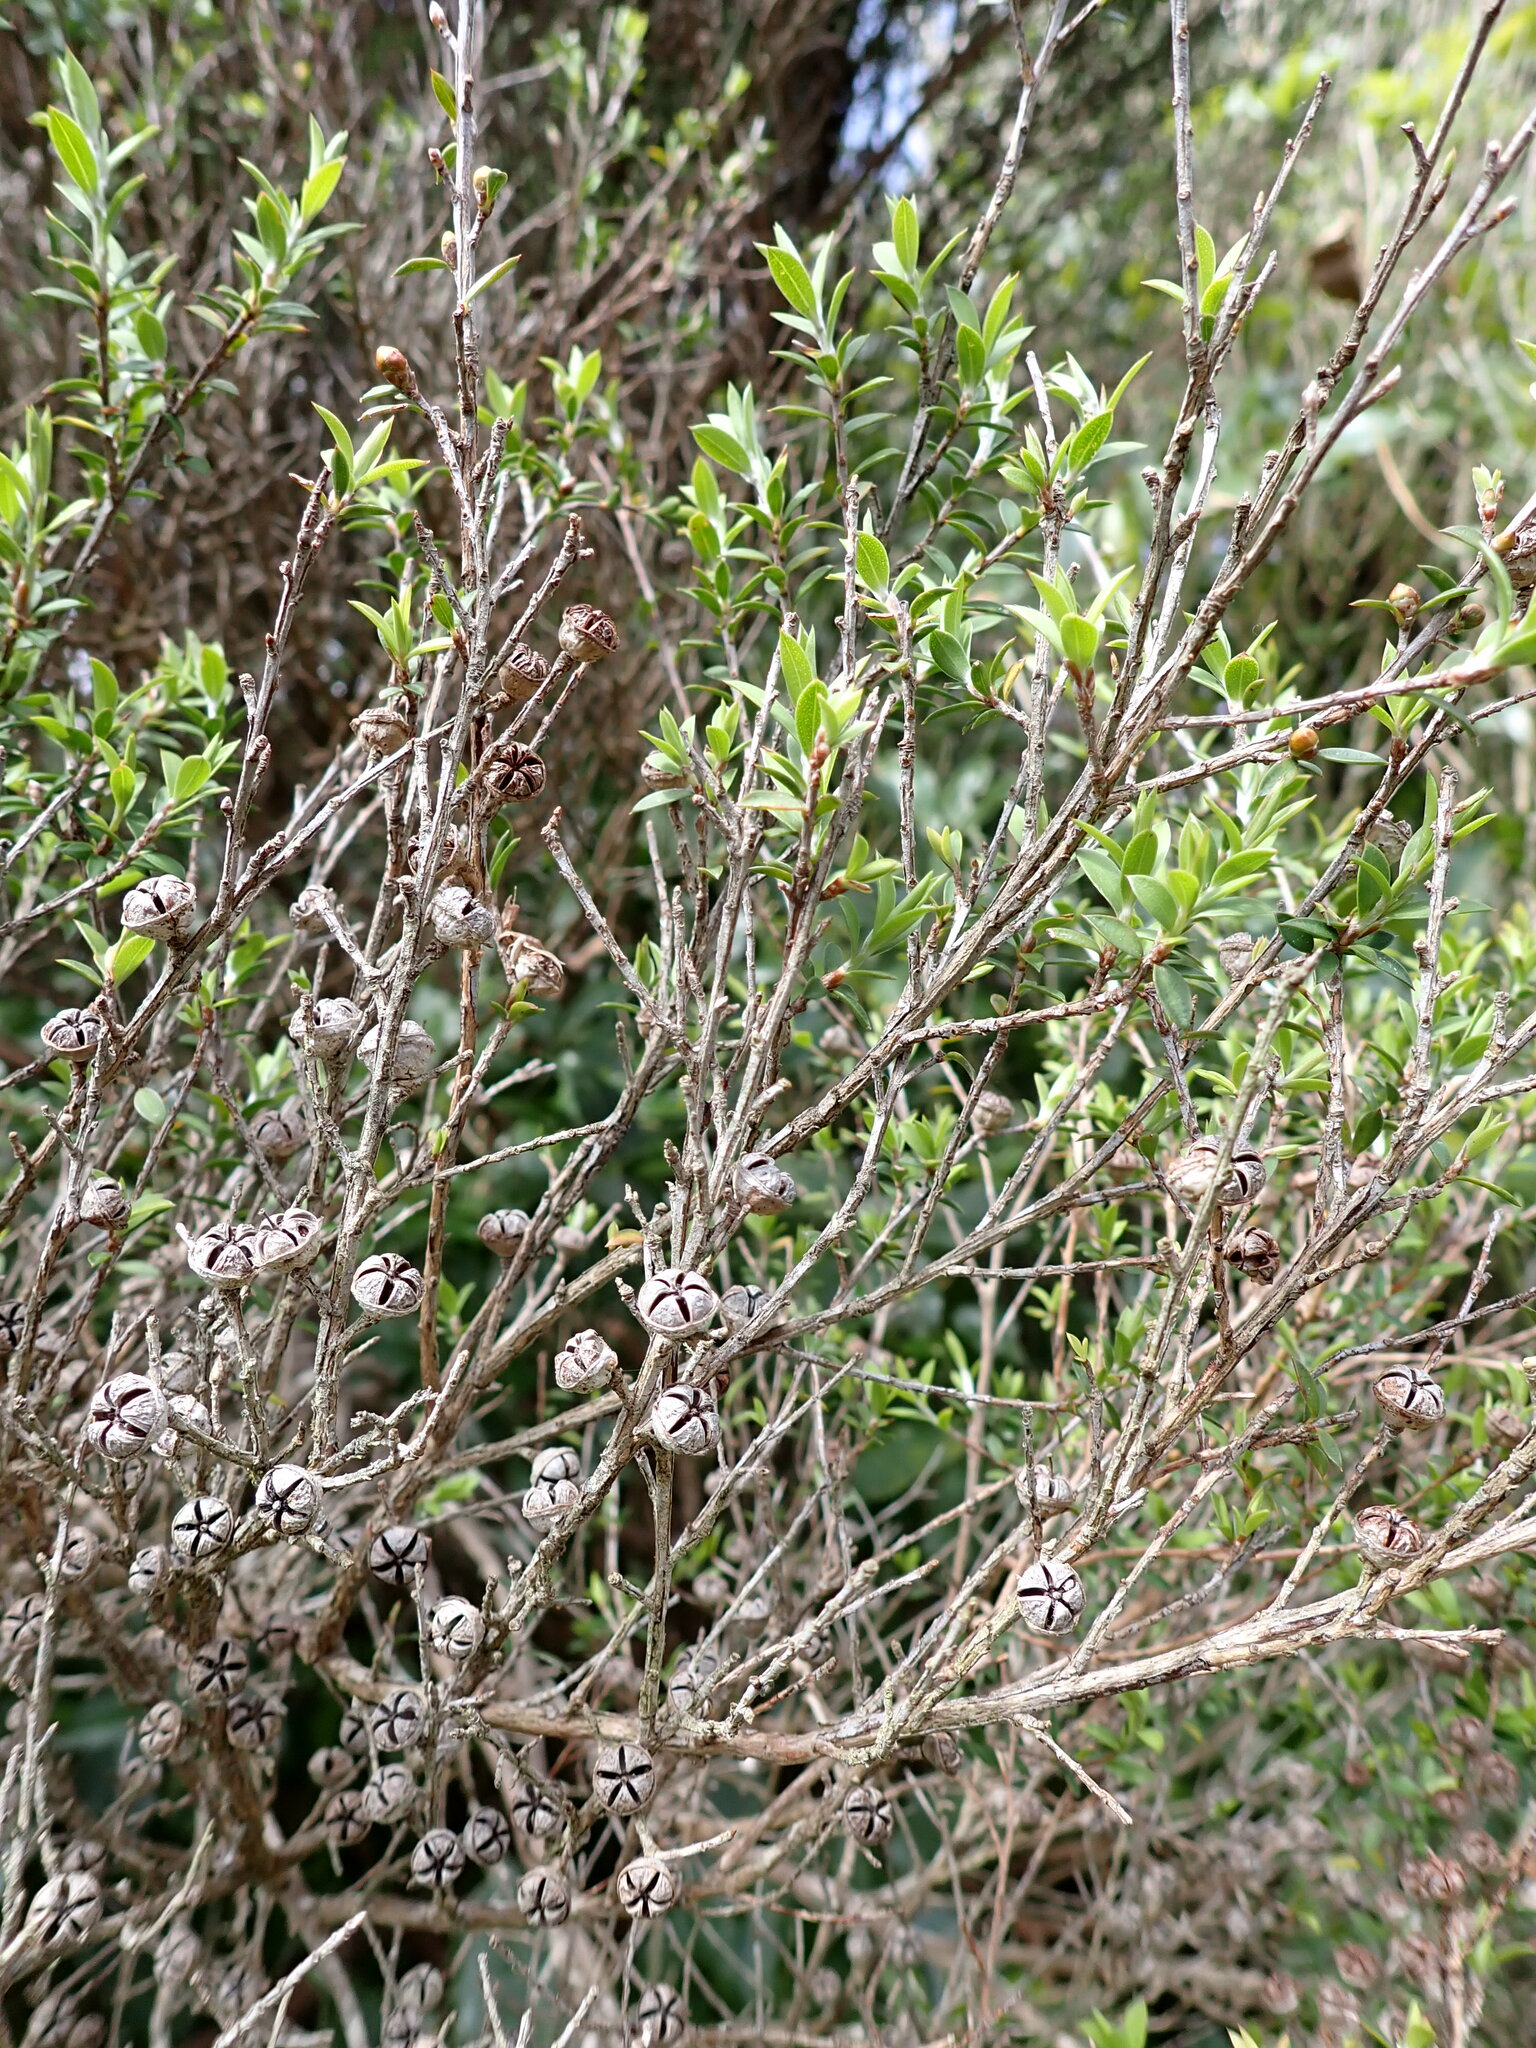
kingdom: Plantae
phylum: Tracheophyta
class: Magnoliopsida
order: Myrtales
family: Myrtaceae
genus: Leptospermum
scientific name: Leptospermum scoparium
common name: Broom tea-tree
